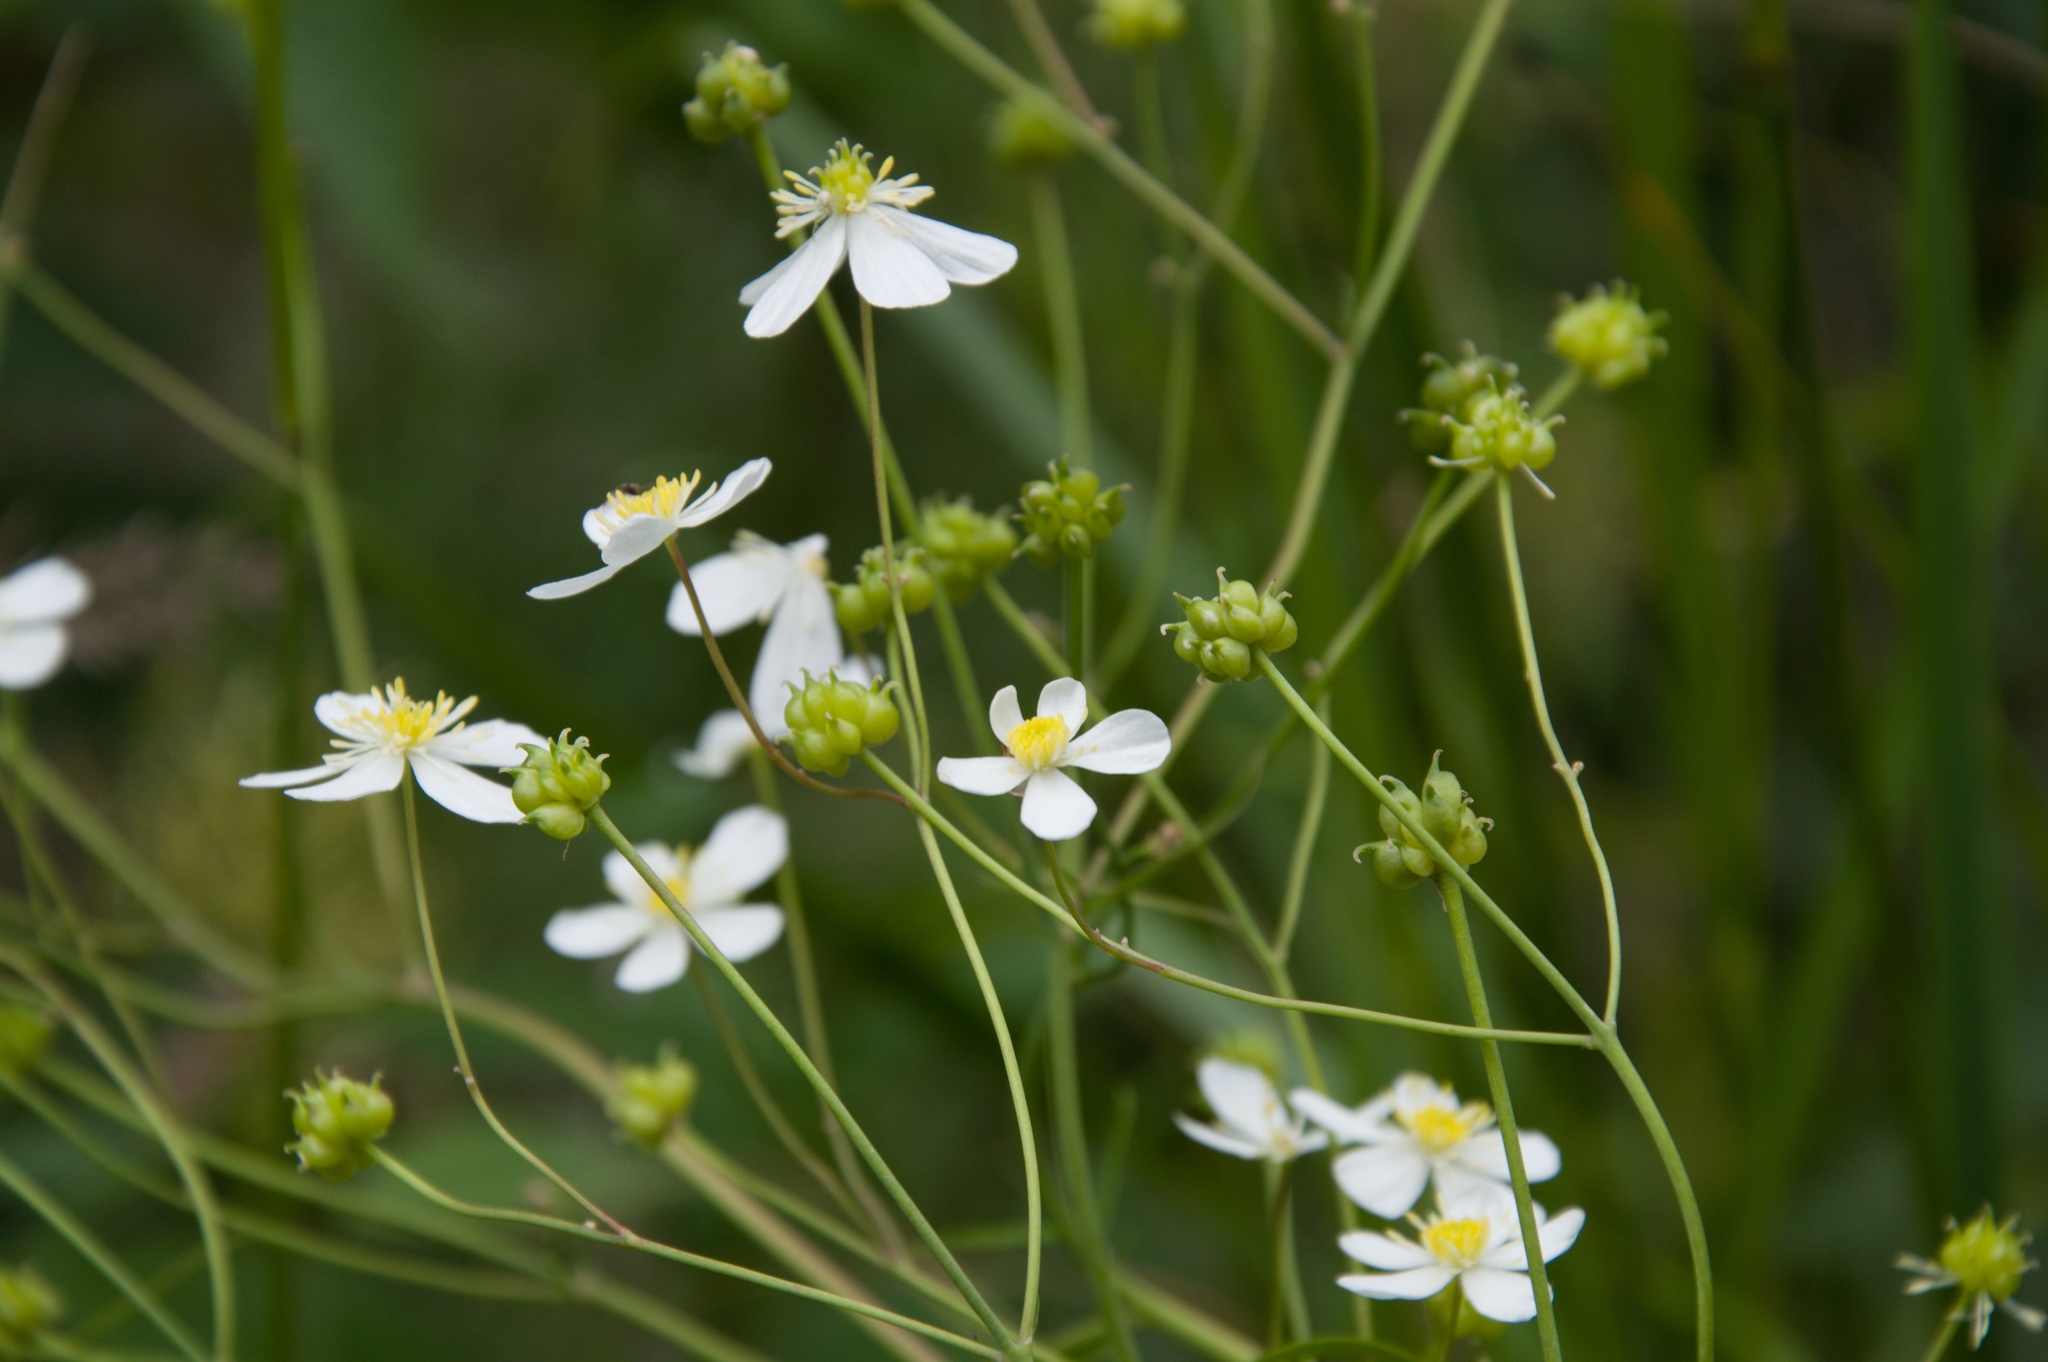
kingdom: Plantae
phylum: Tracheophyta
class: Magnoliopsida
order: Ranunculales
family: Ranunculaceae
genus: Ranunculus
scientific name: Ranunculus platanifolius
